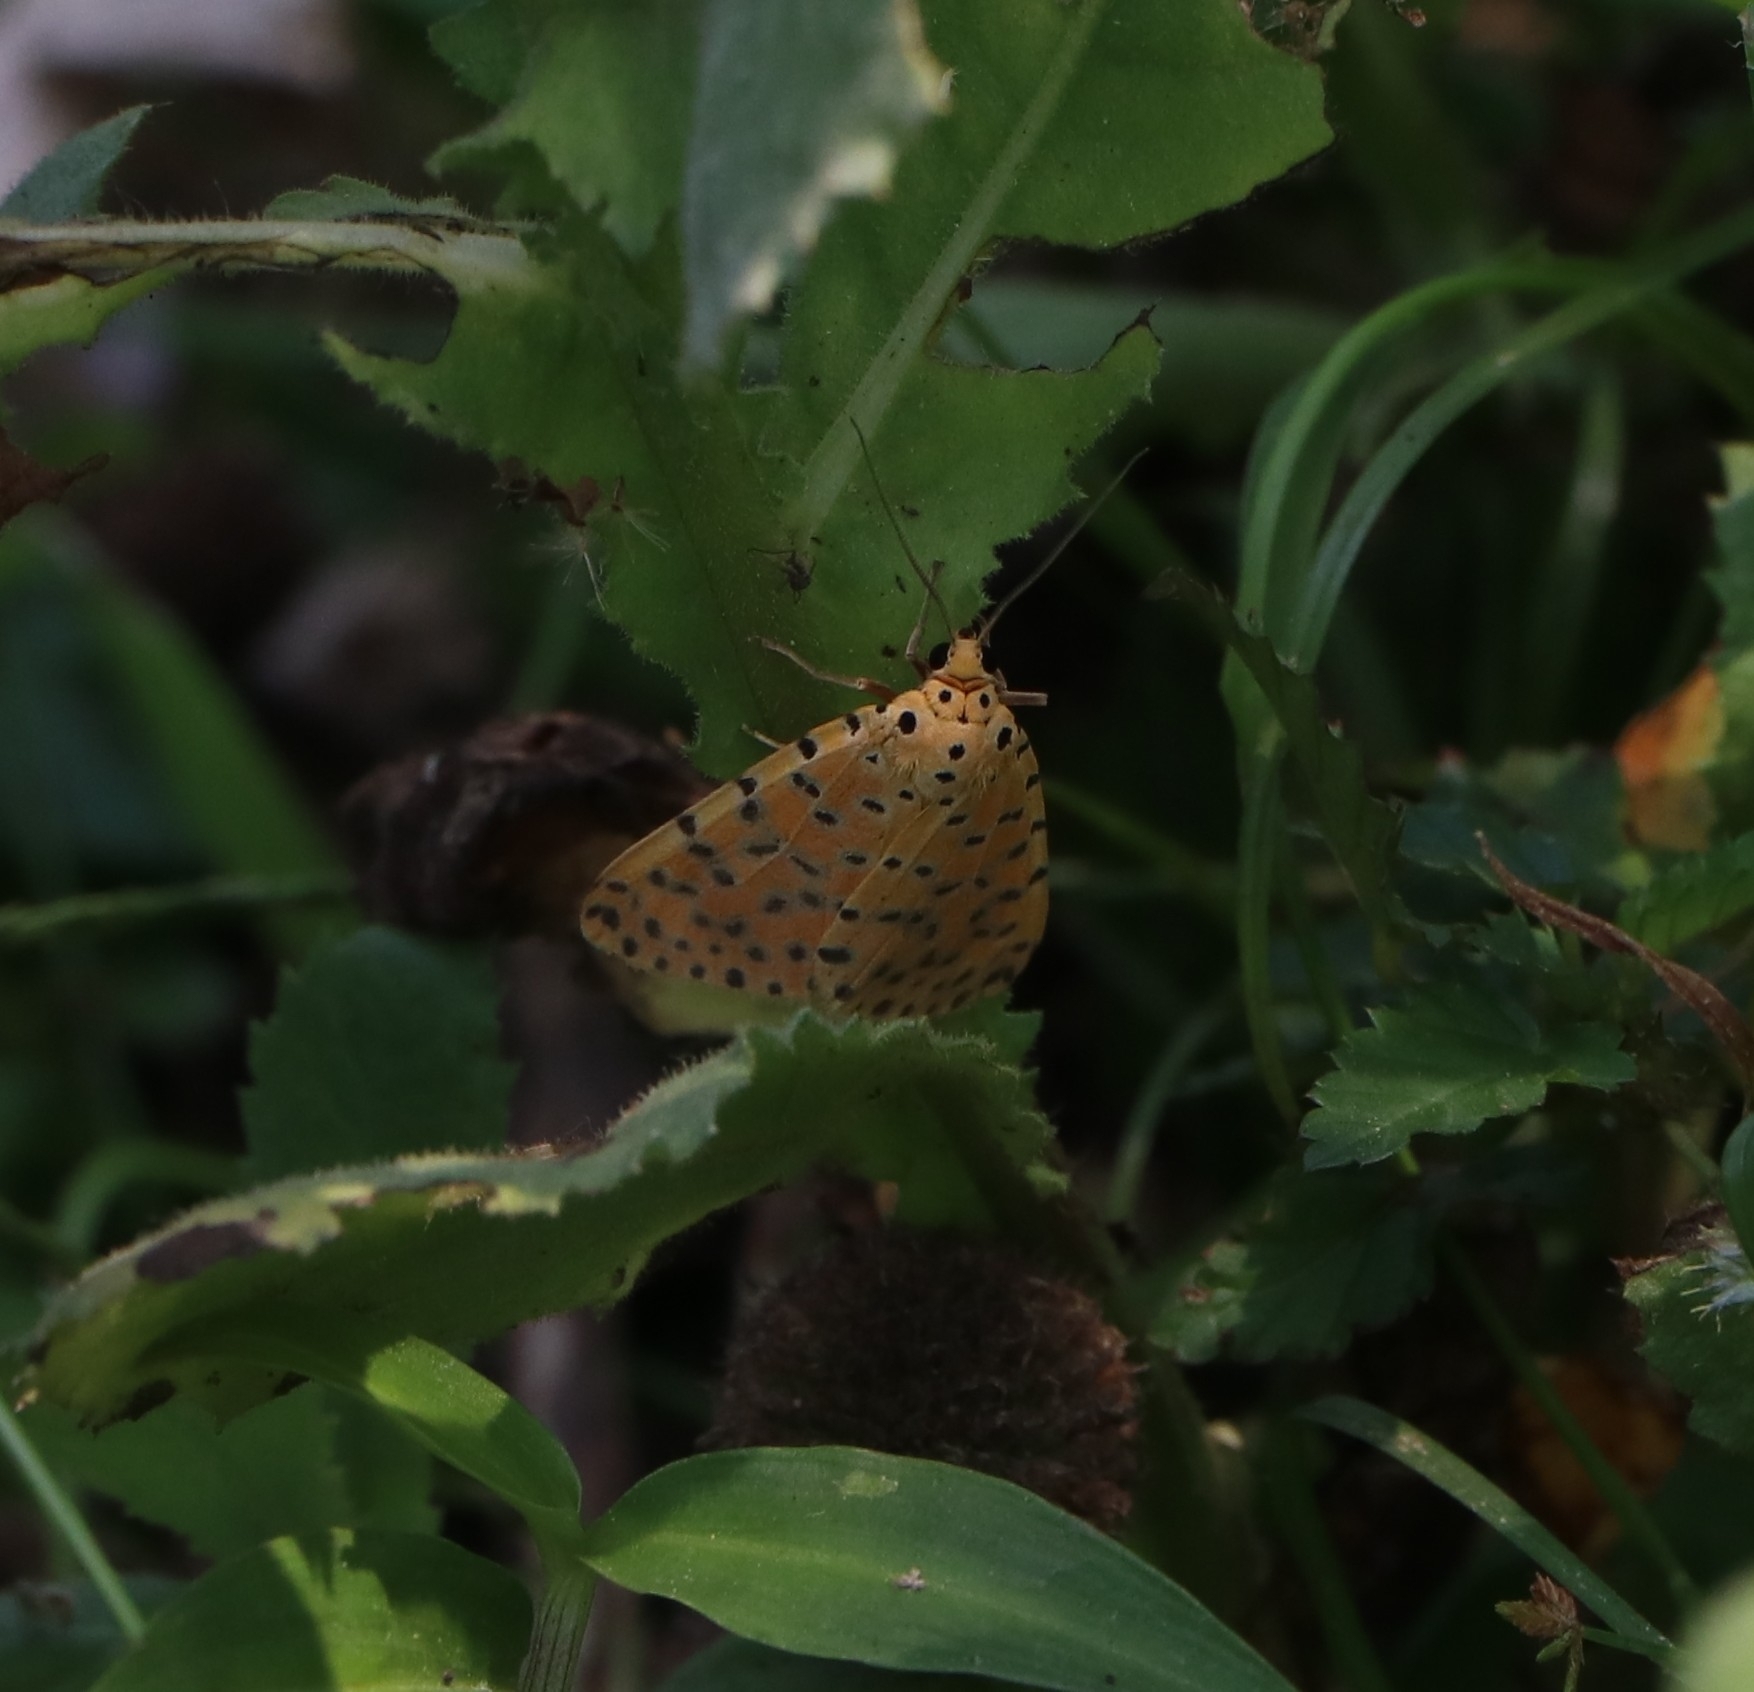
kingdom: Animalia
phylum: Arthropoda
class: Insecta
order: Lepidoptera
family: Erebidae
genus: Argina
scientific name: Argina astrea
